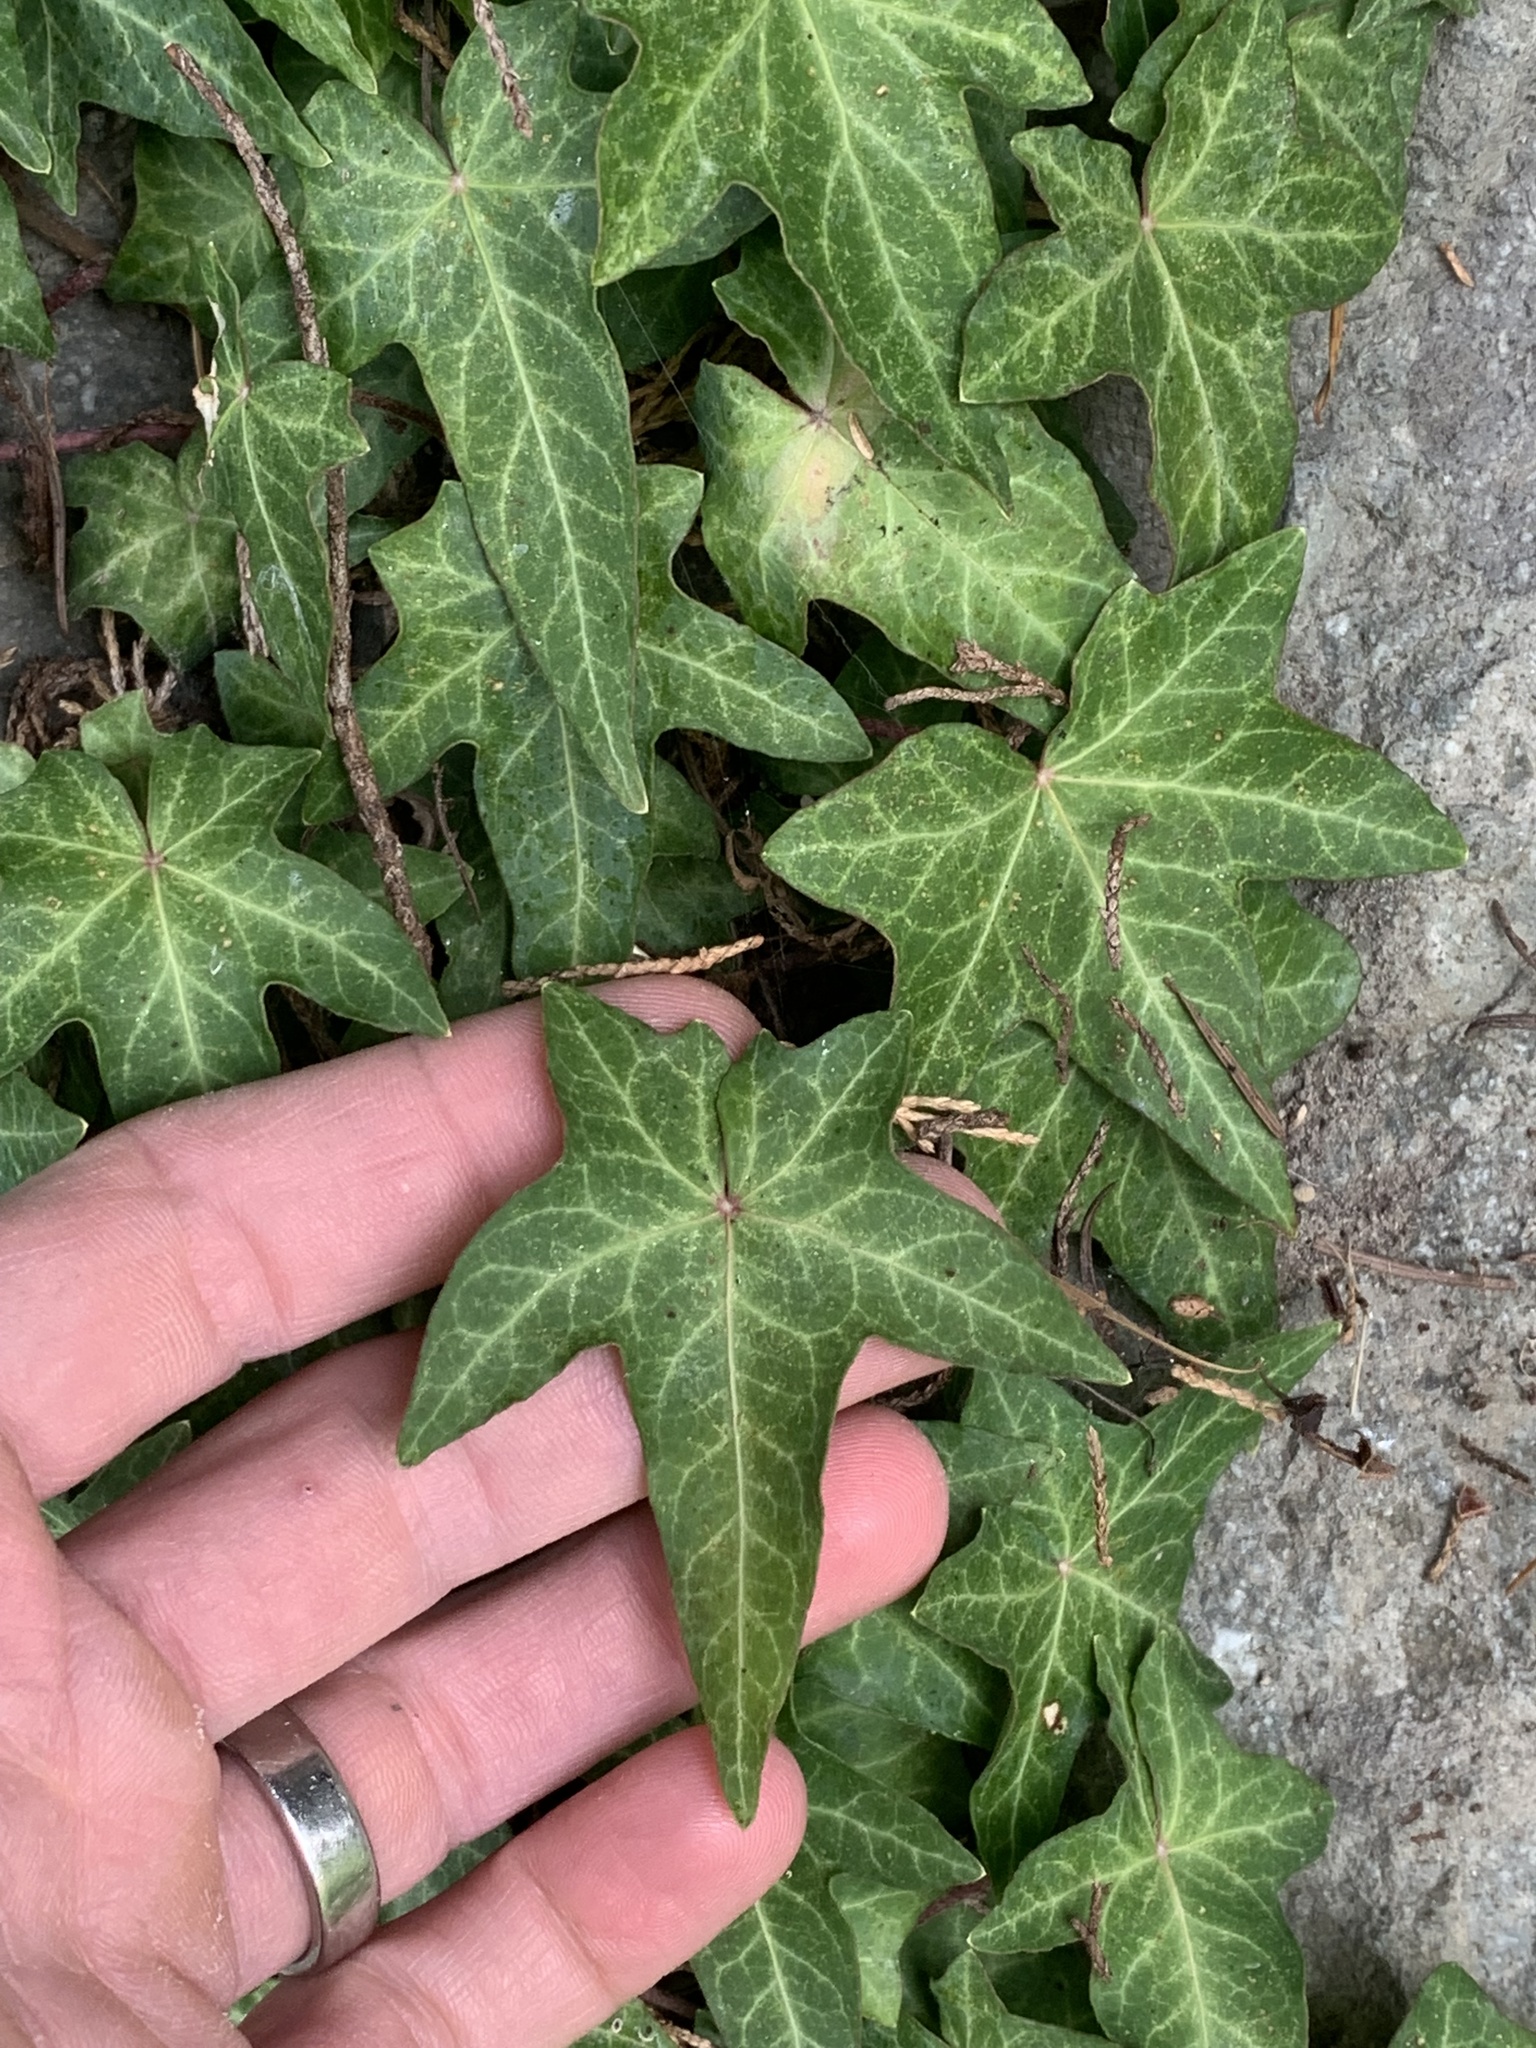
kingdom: Plantae
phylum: Tracheophyta
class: Magnoliopsida
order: Apiales
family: Araliaceae
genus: Hedera
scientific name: Hedera helix
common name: Ivy
